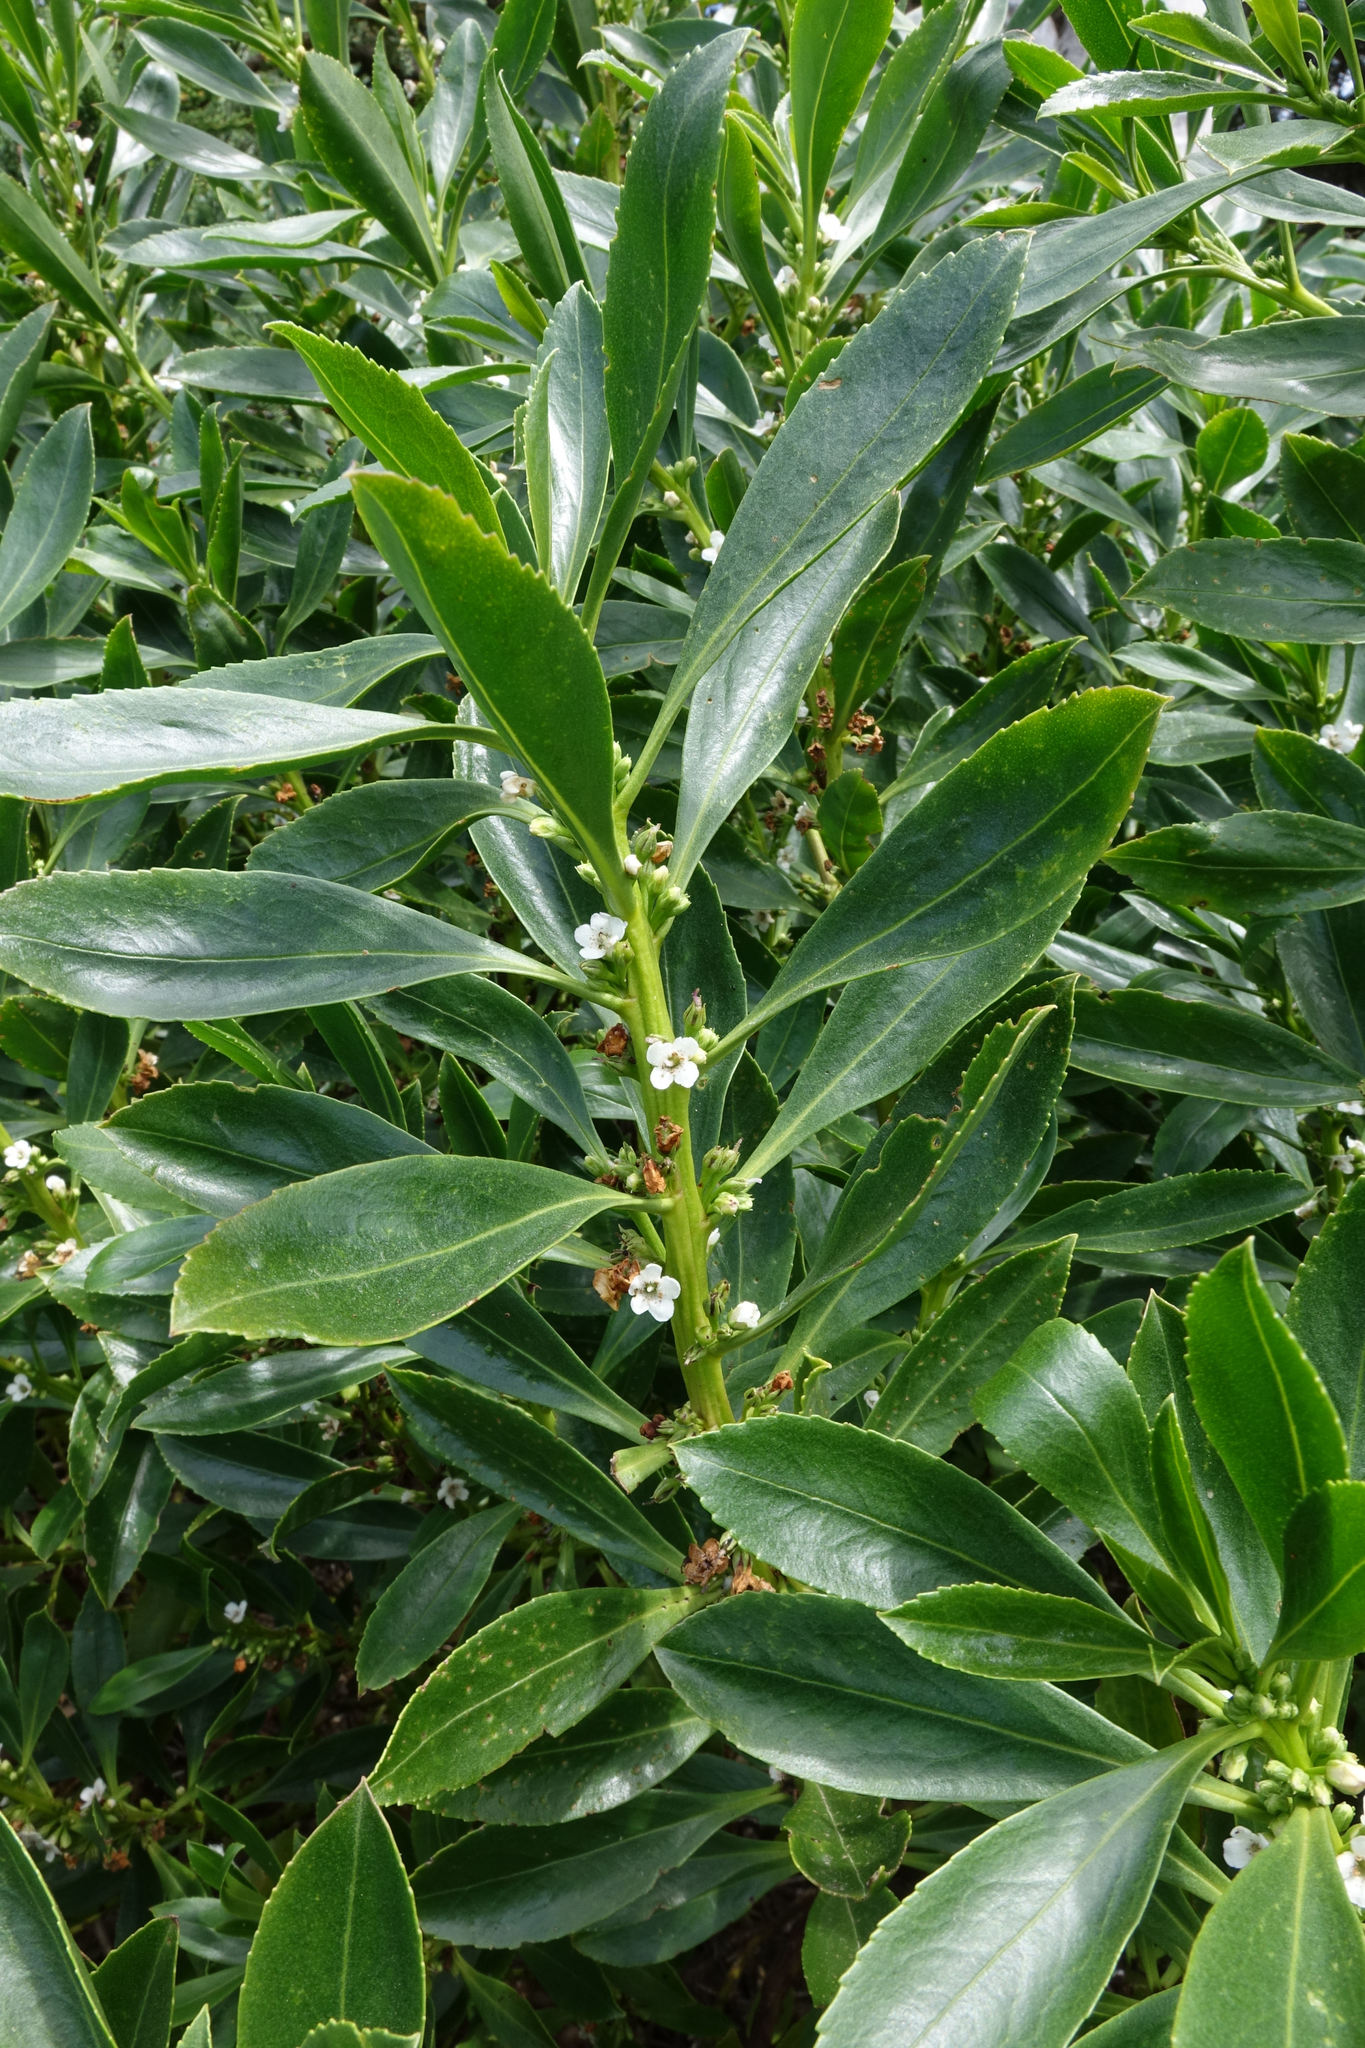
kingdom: Plantae
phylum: Tracheophyta
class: Magnoliopsida
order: Lamiales
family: Scrophulariaceae
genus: Myoporum
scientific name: Myoporum insulare
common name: Common boobialla
